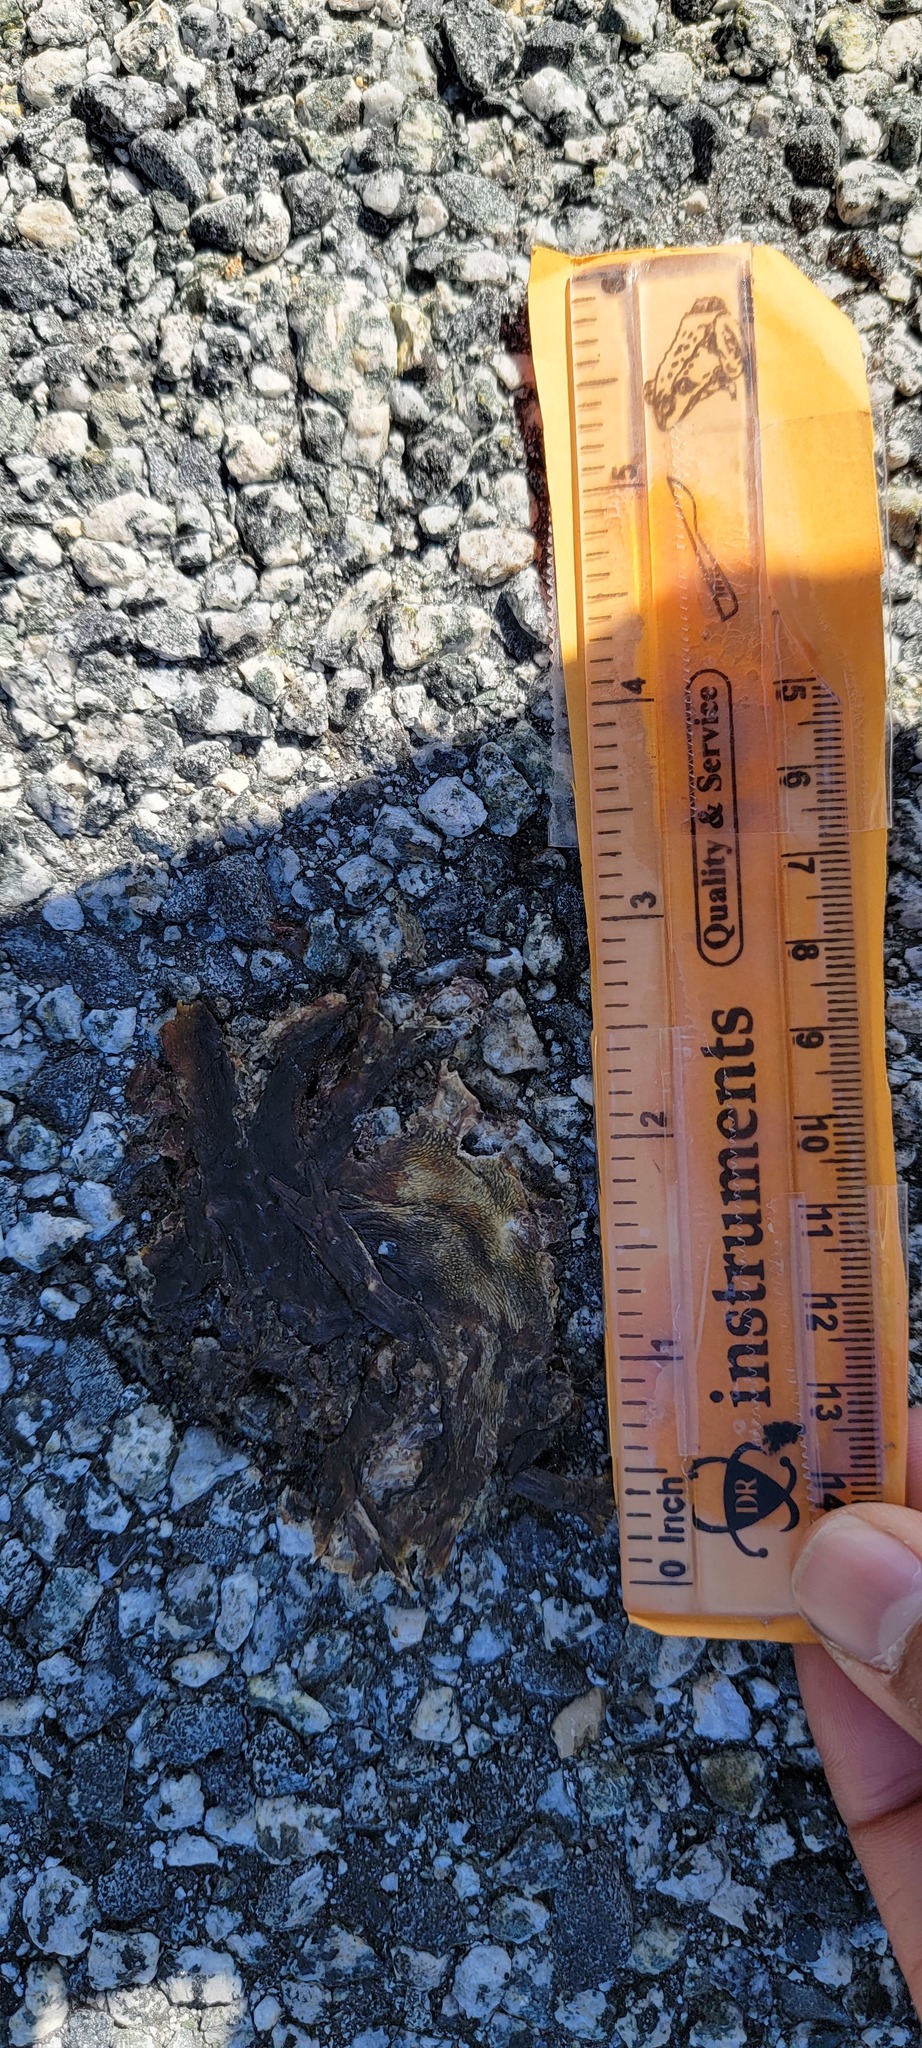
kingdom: Animalia
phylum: Chordata
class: Amphibia
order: Caudata
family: Salamandridae
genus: Taricha
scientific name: Taricha
